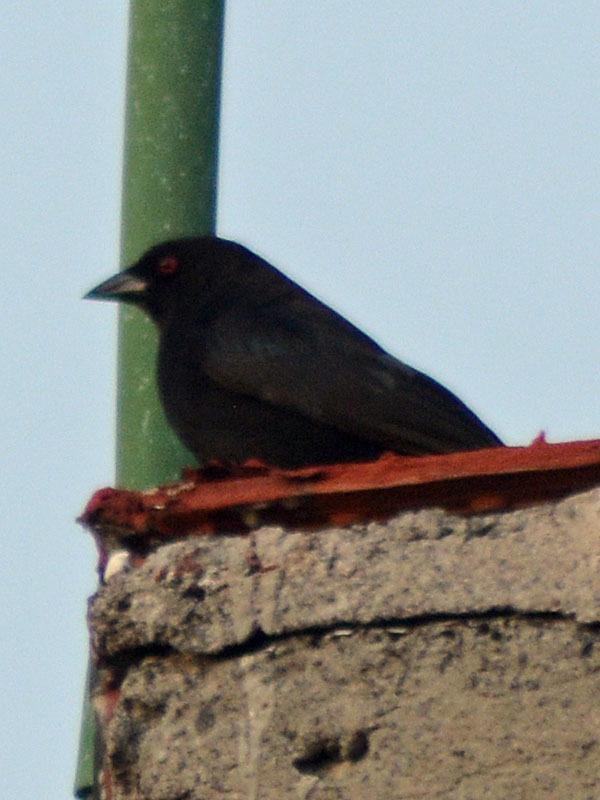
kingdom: Animalia
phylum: Chordata
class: Aves
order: Passeriformes
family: Icteridae
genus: Molothrus
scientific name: Molothrus aeneus
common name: Bronzed cowbird
